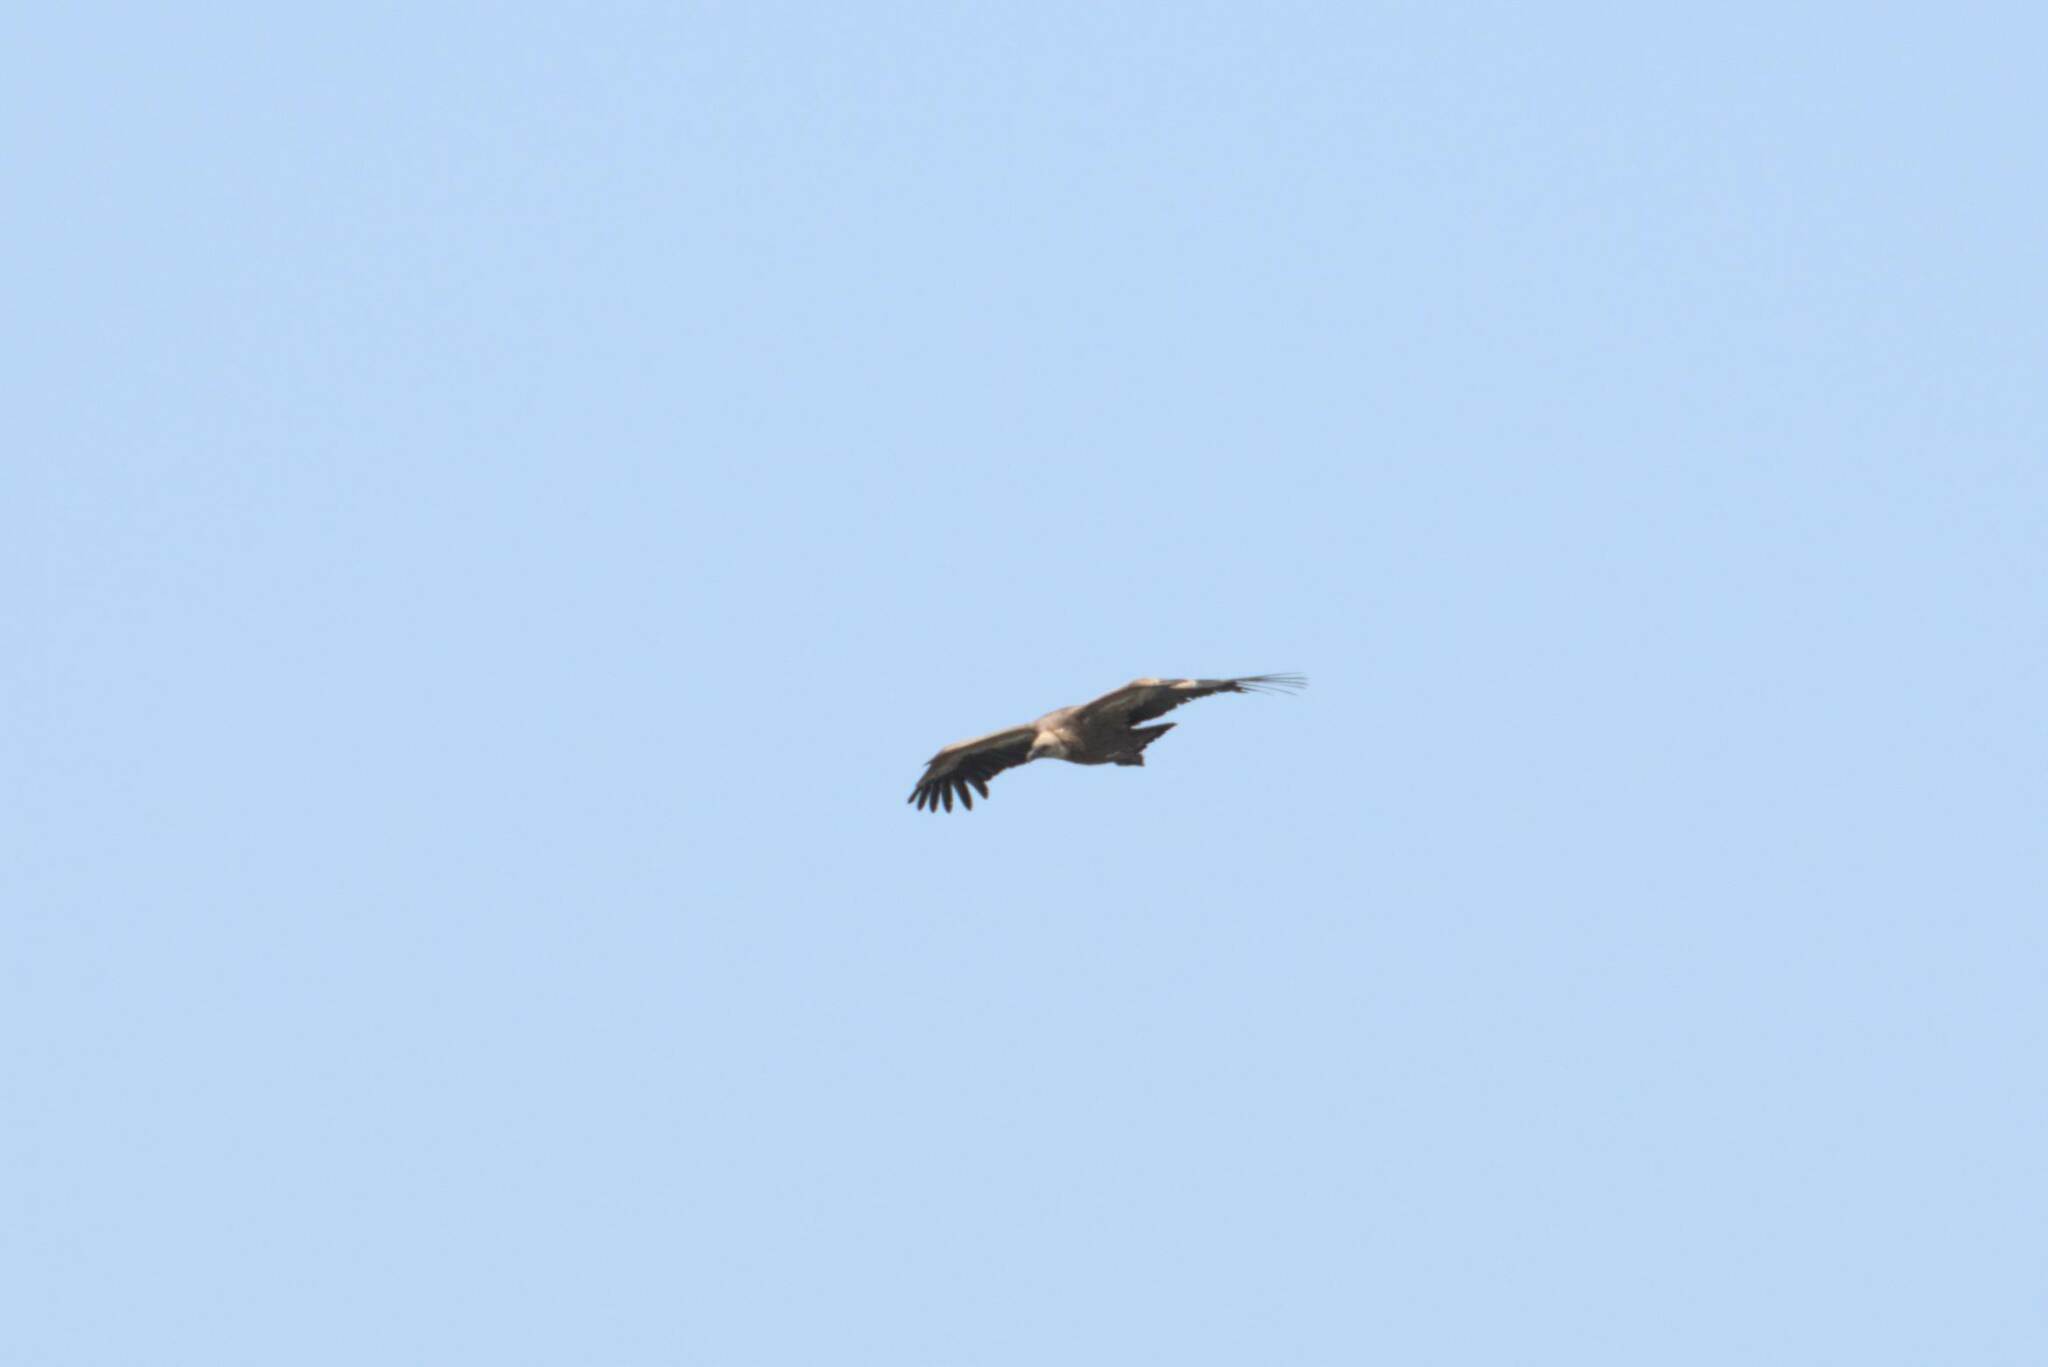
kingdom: Animalia
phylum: Chordata
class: Aves
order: Accipitriformes
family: Accipitridae
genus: Gyps
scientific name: Gyps fulvus
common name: Griffon vulture
